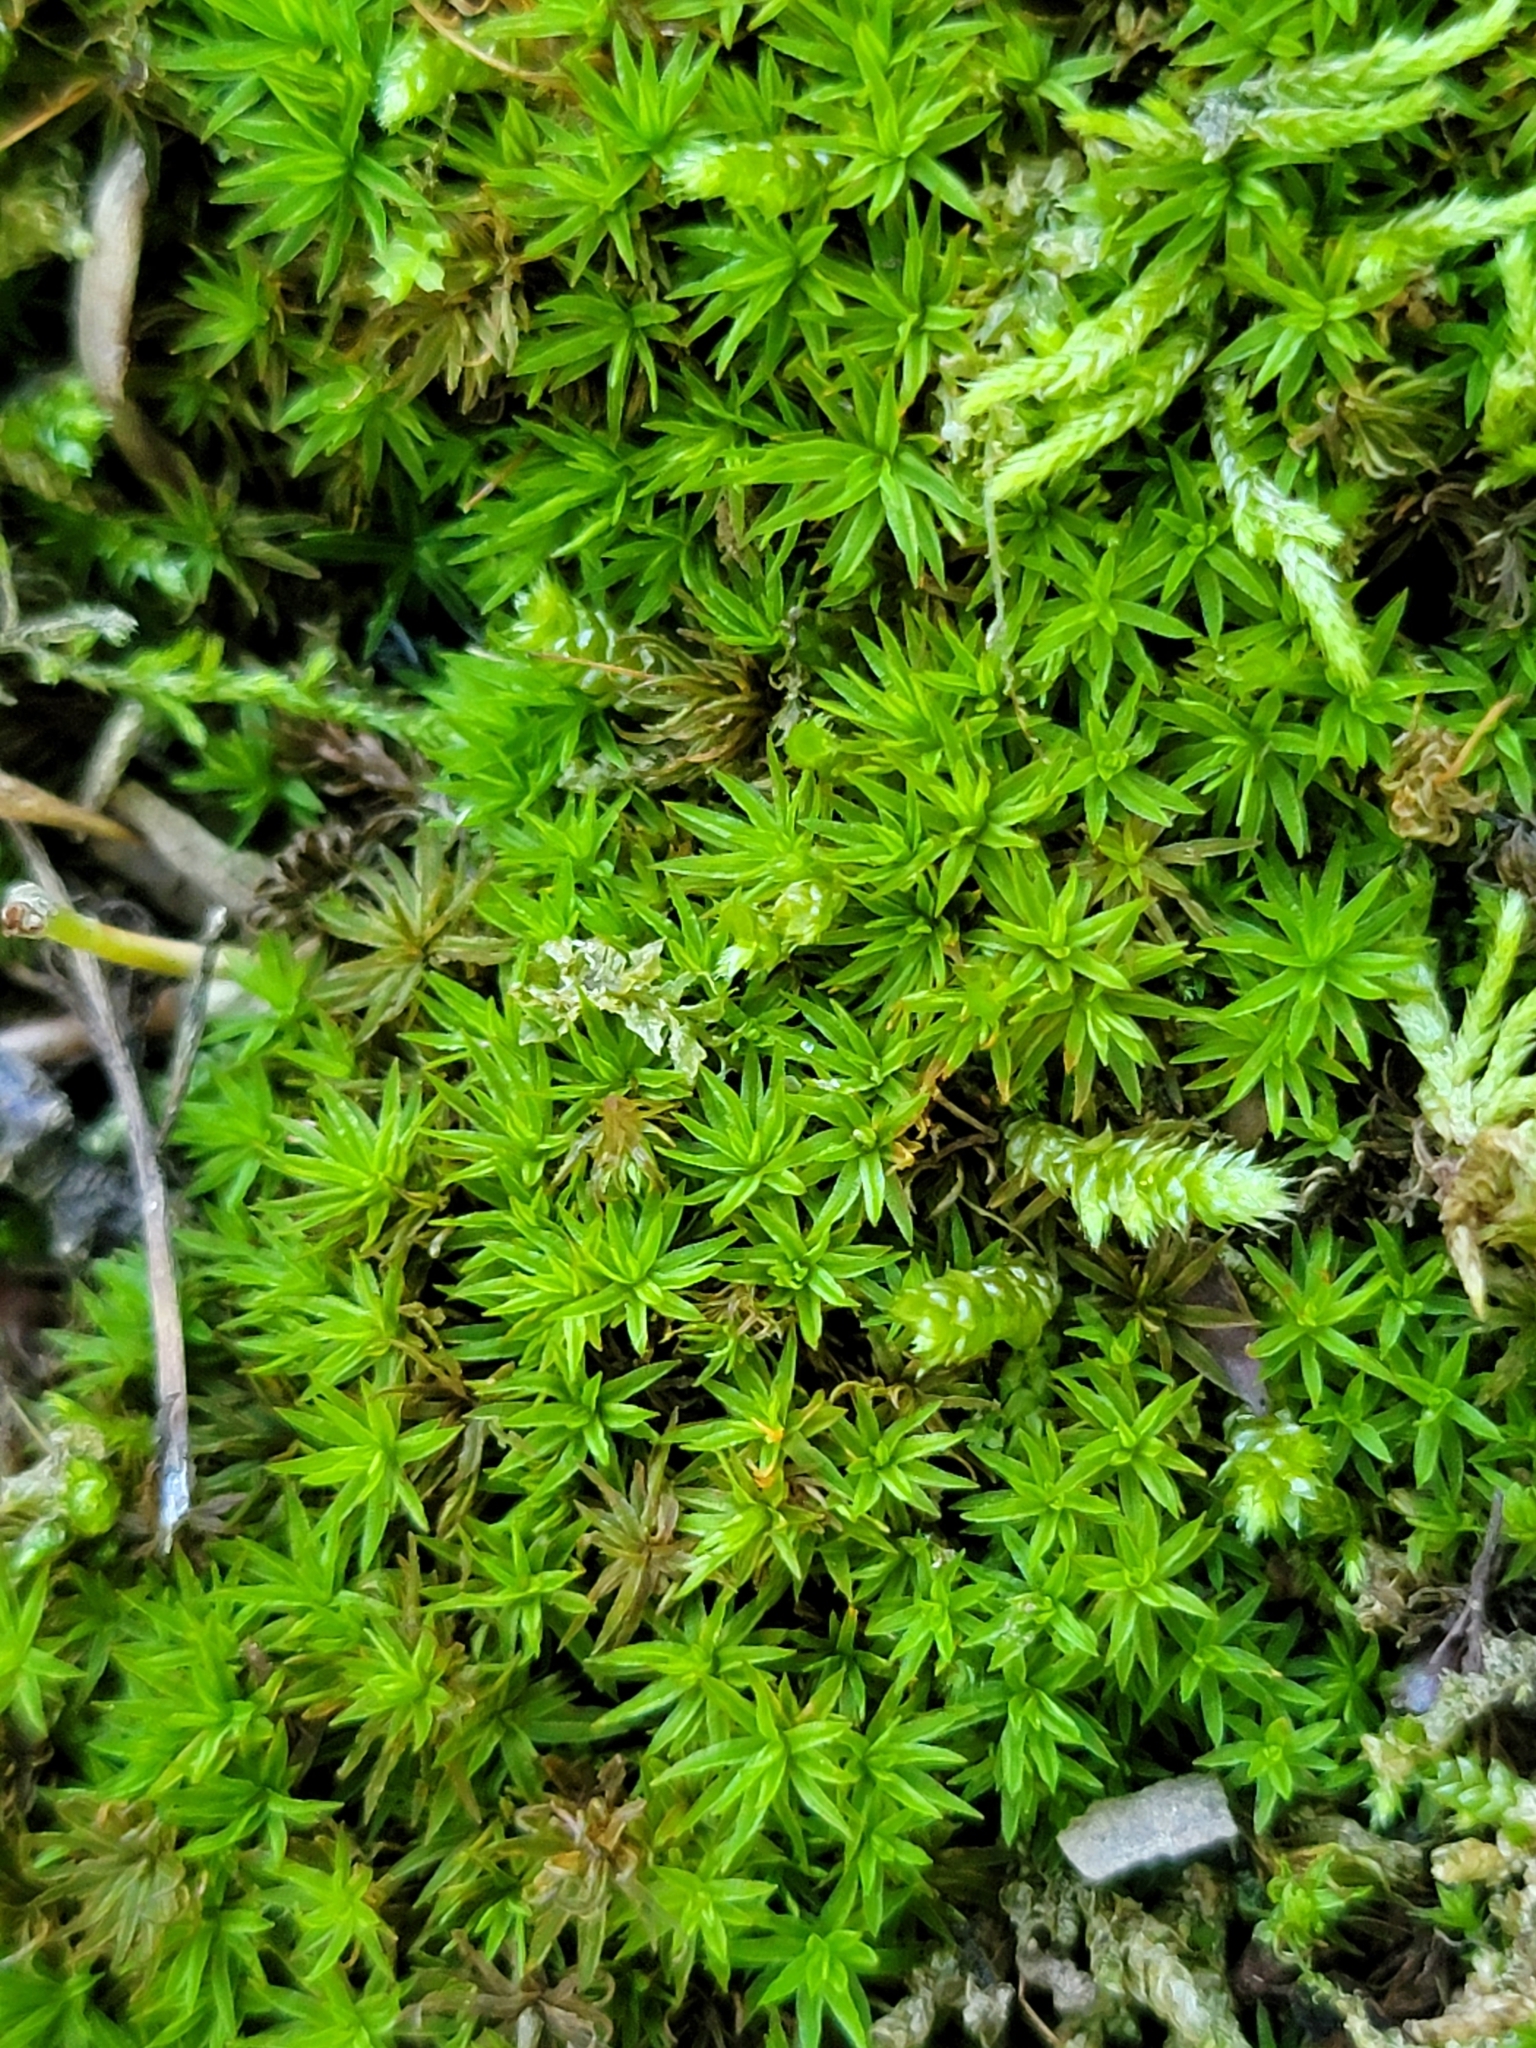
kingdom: Plantae
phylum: Bryophyta
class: Polytrichopsida
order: Polytrichales
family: Polytrichaceae
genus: Atrichum
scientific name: Atrichum angustatum
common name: Lesser smoothcap
